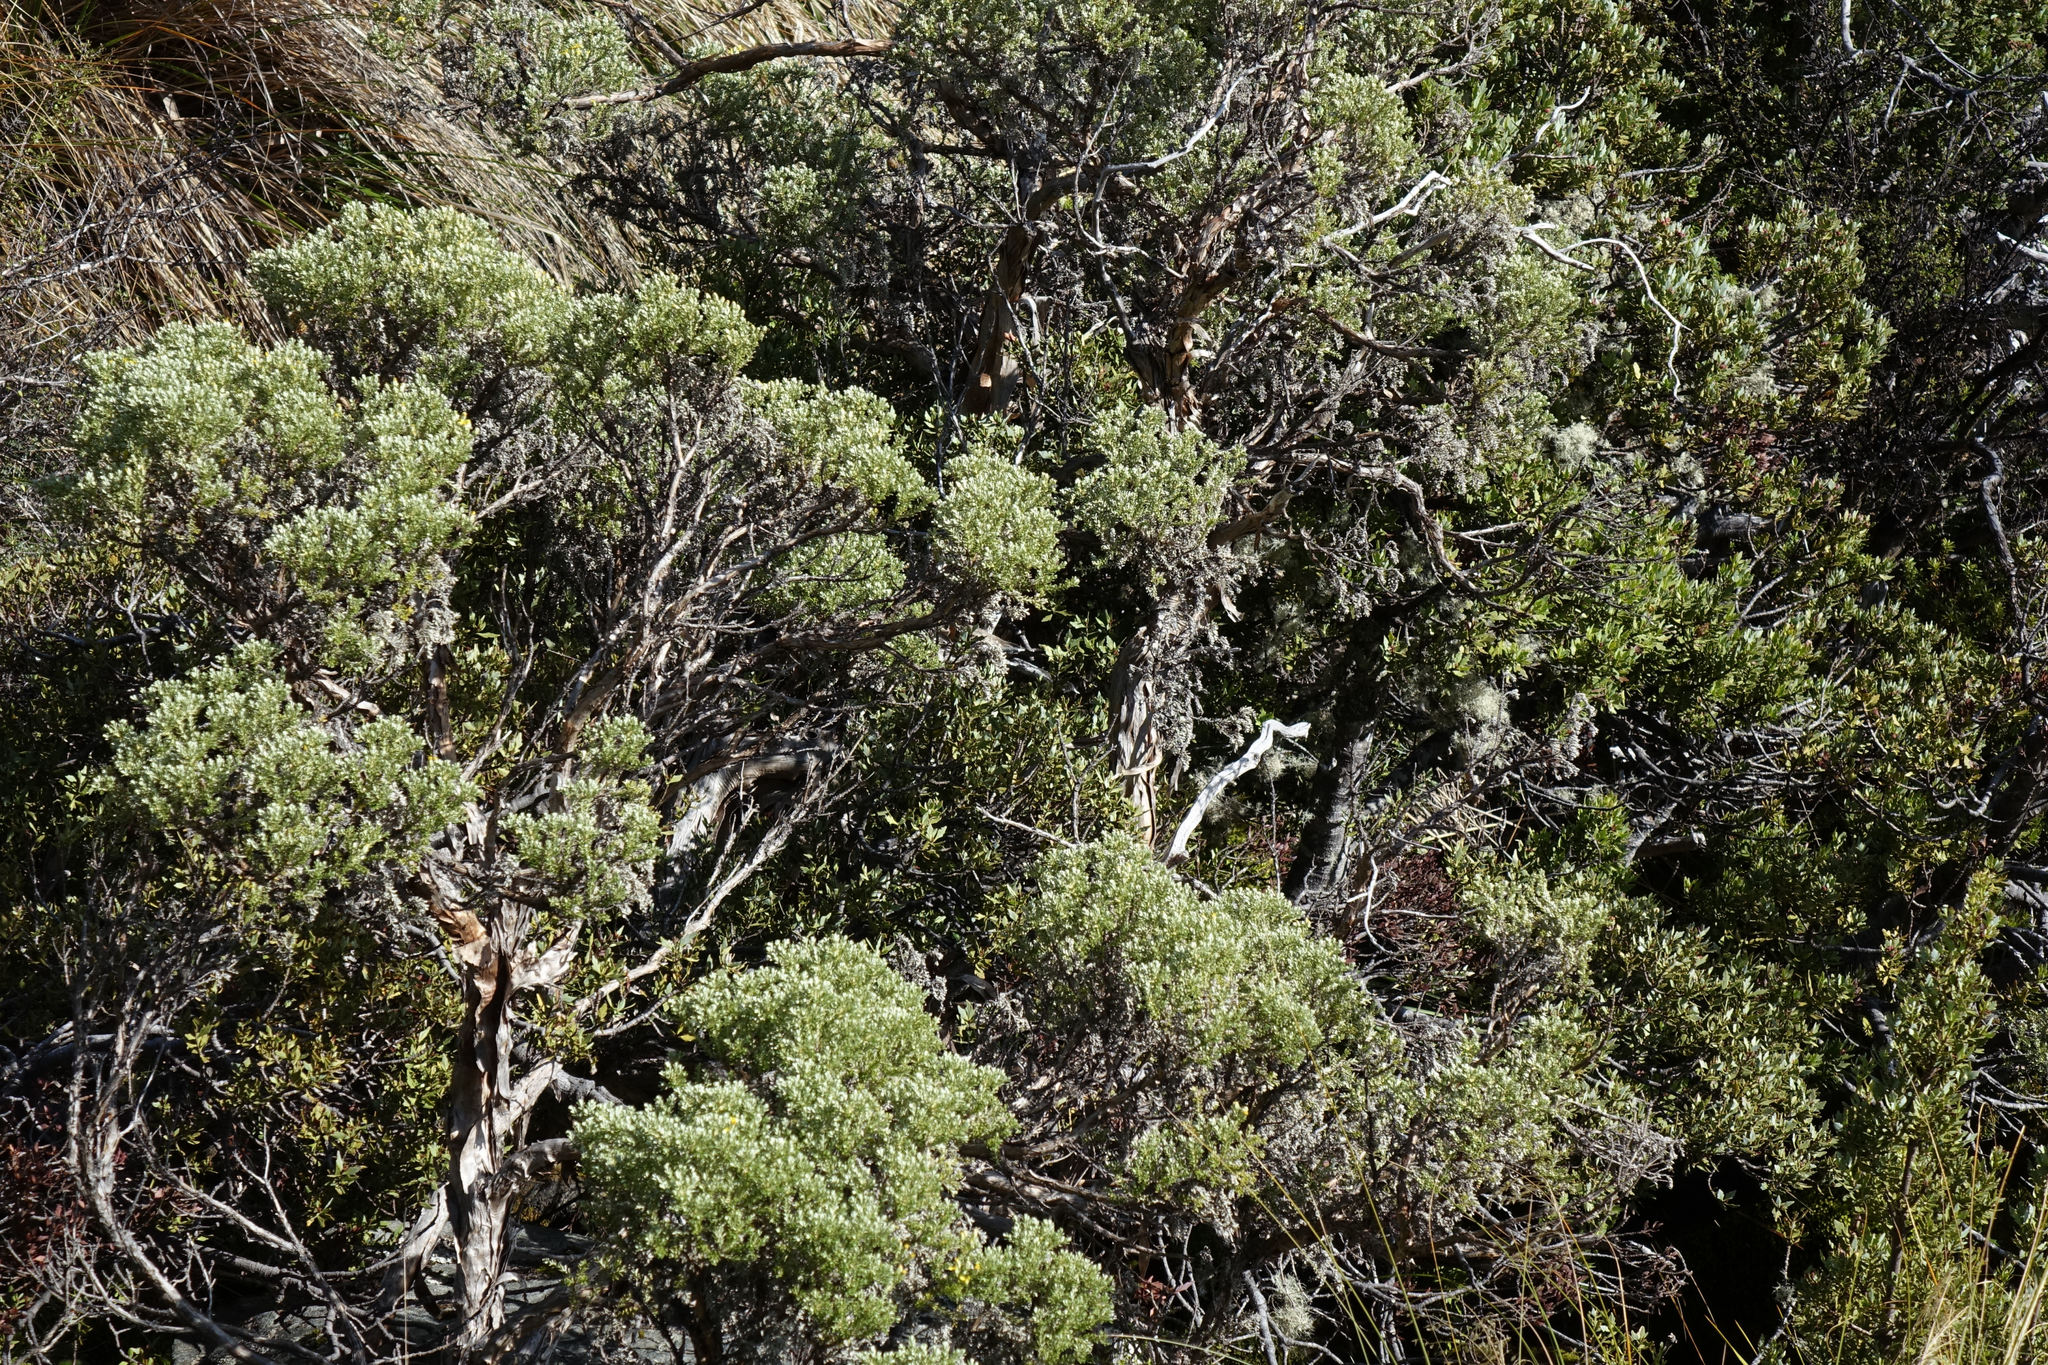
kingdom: Plantae
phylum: Tracheophyta
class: Magnoliopsida
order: Asterales
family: Asteraceae
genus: Brachyglottis
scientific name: Brachyglottis cassinioides
